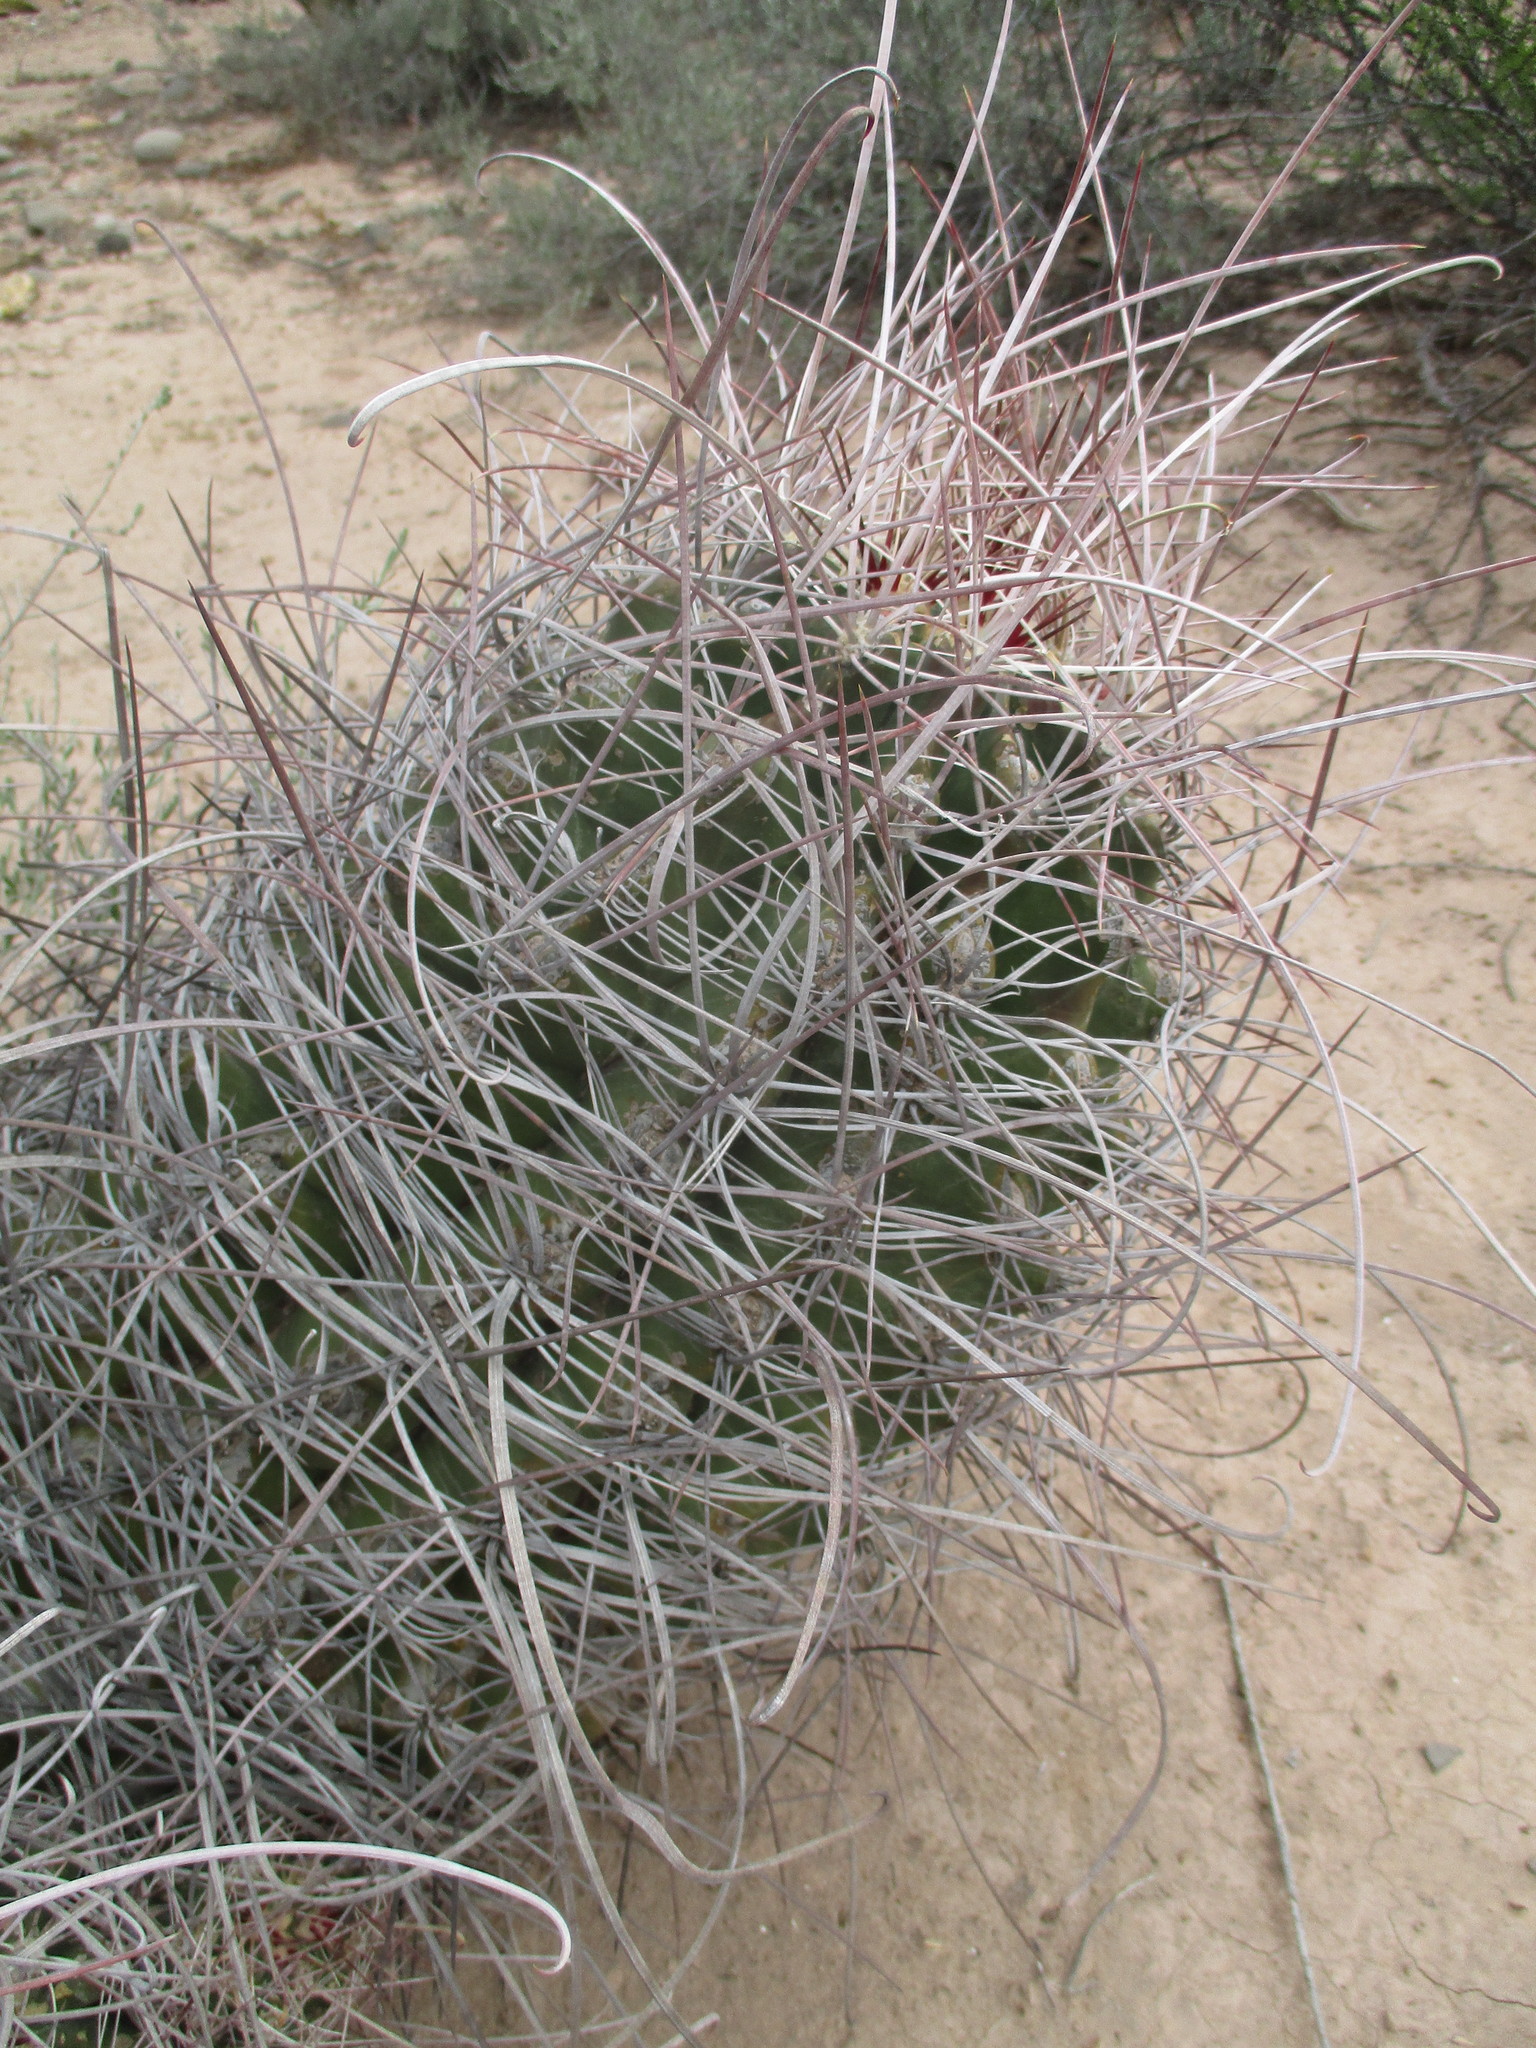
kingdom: Plantae
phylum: Tracheophyta
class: Magnoliopsida
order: Caryophyllales
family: Cactaceae
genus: Bisnaga
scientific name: Bisnaga hamatacantha
